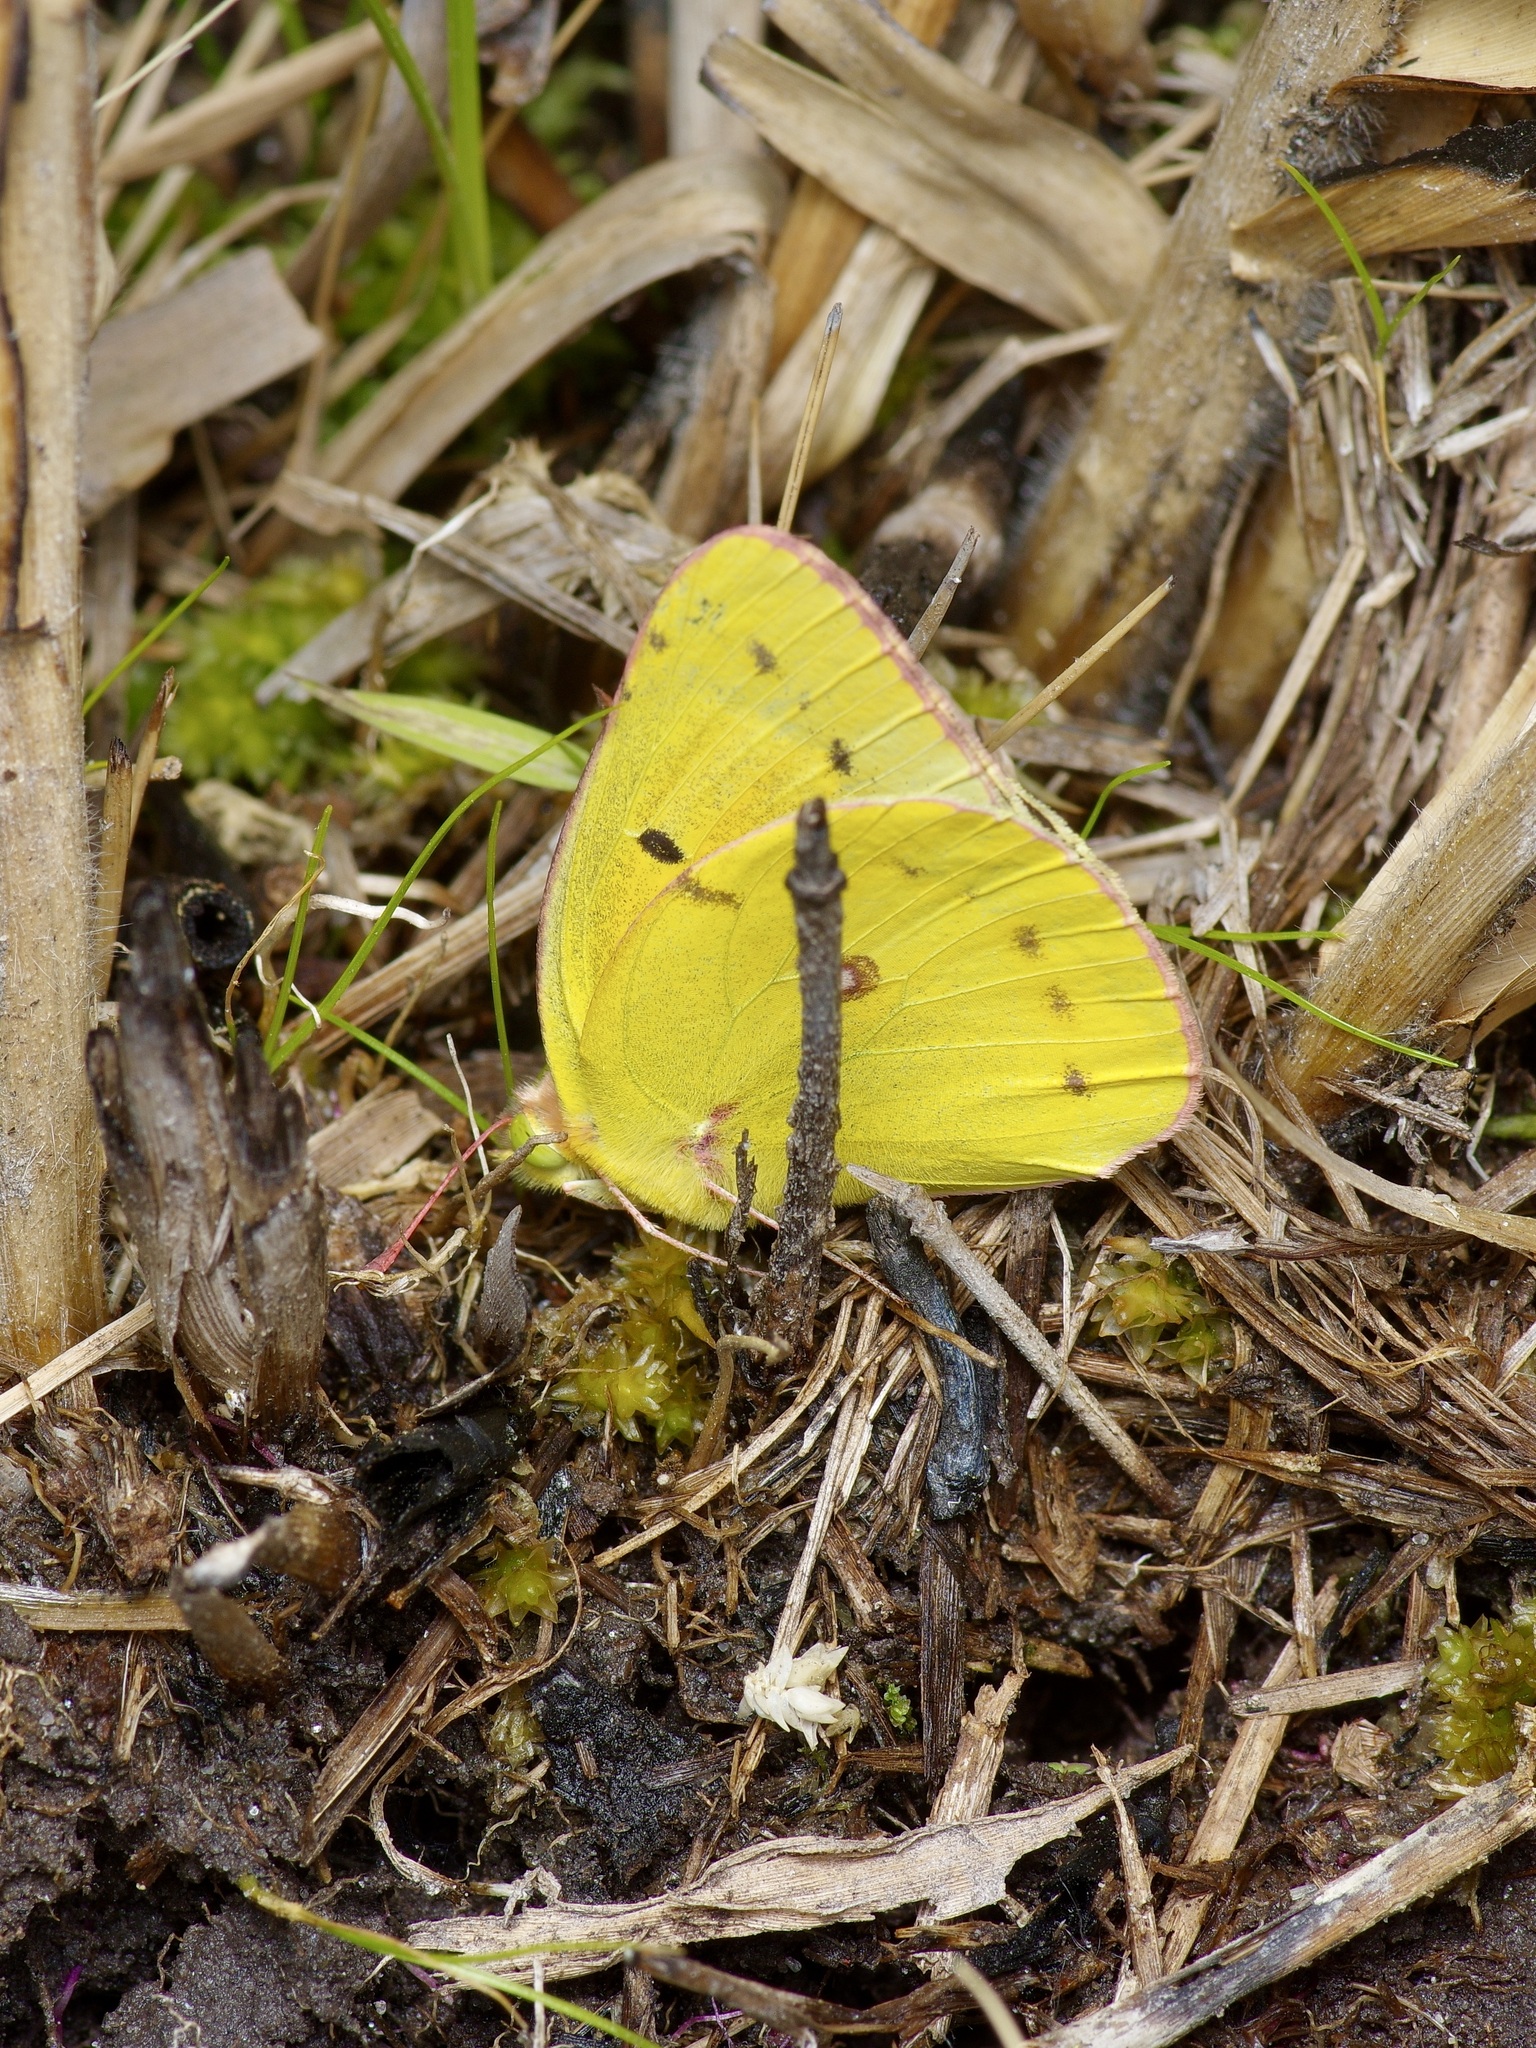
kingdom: Animalia
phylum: Arthropoda
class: Insecta
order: Lepidoptera
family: Pieridae
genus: Colias
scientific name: Colias eurytheme
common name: Alfalfa butterfly
